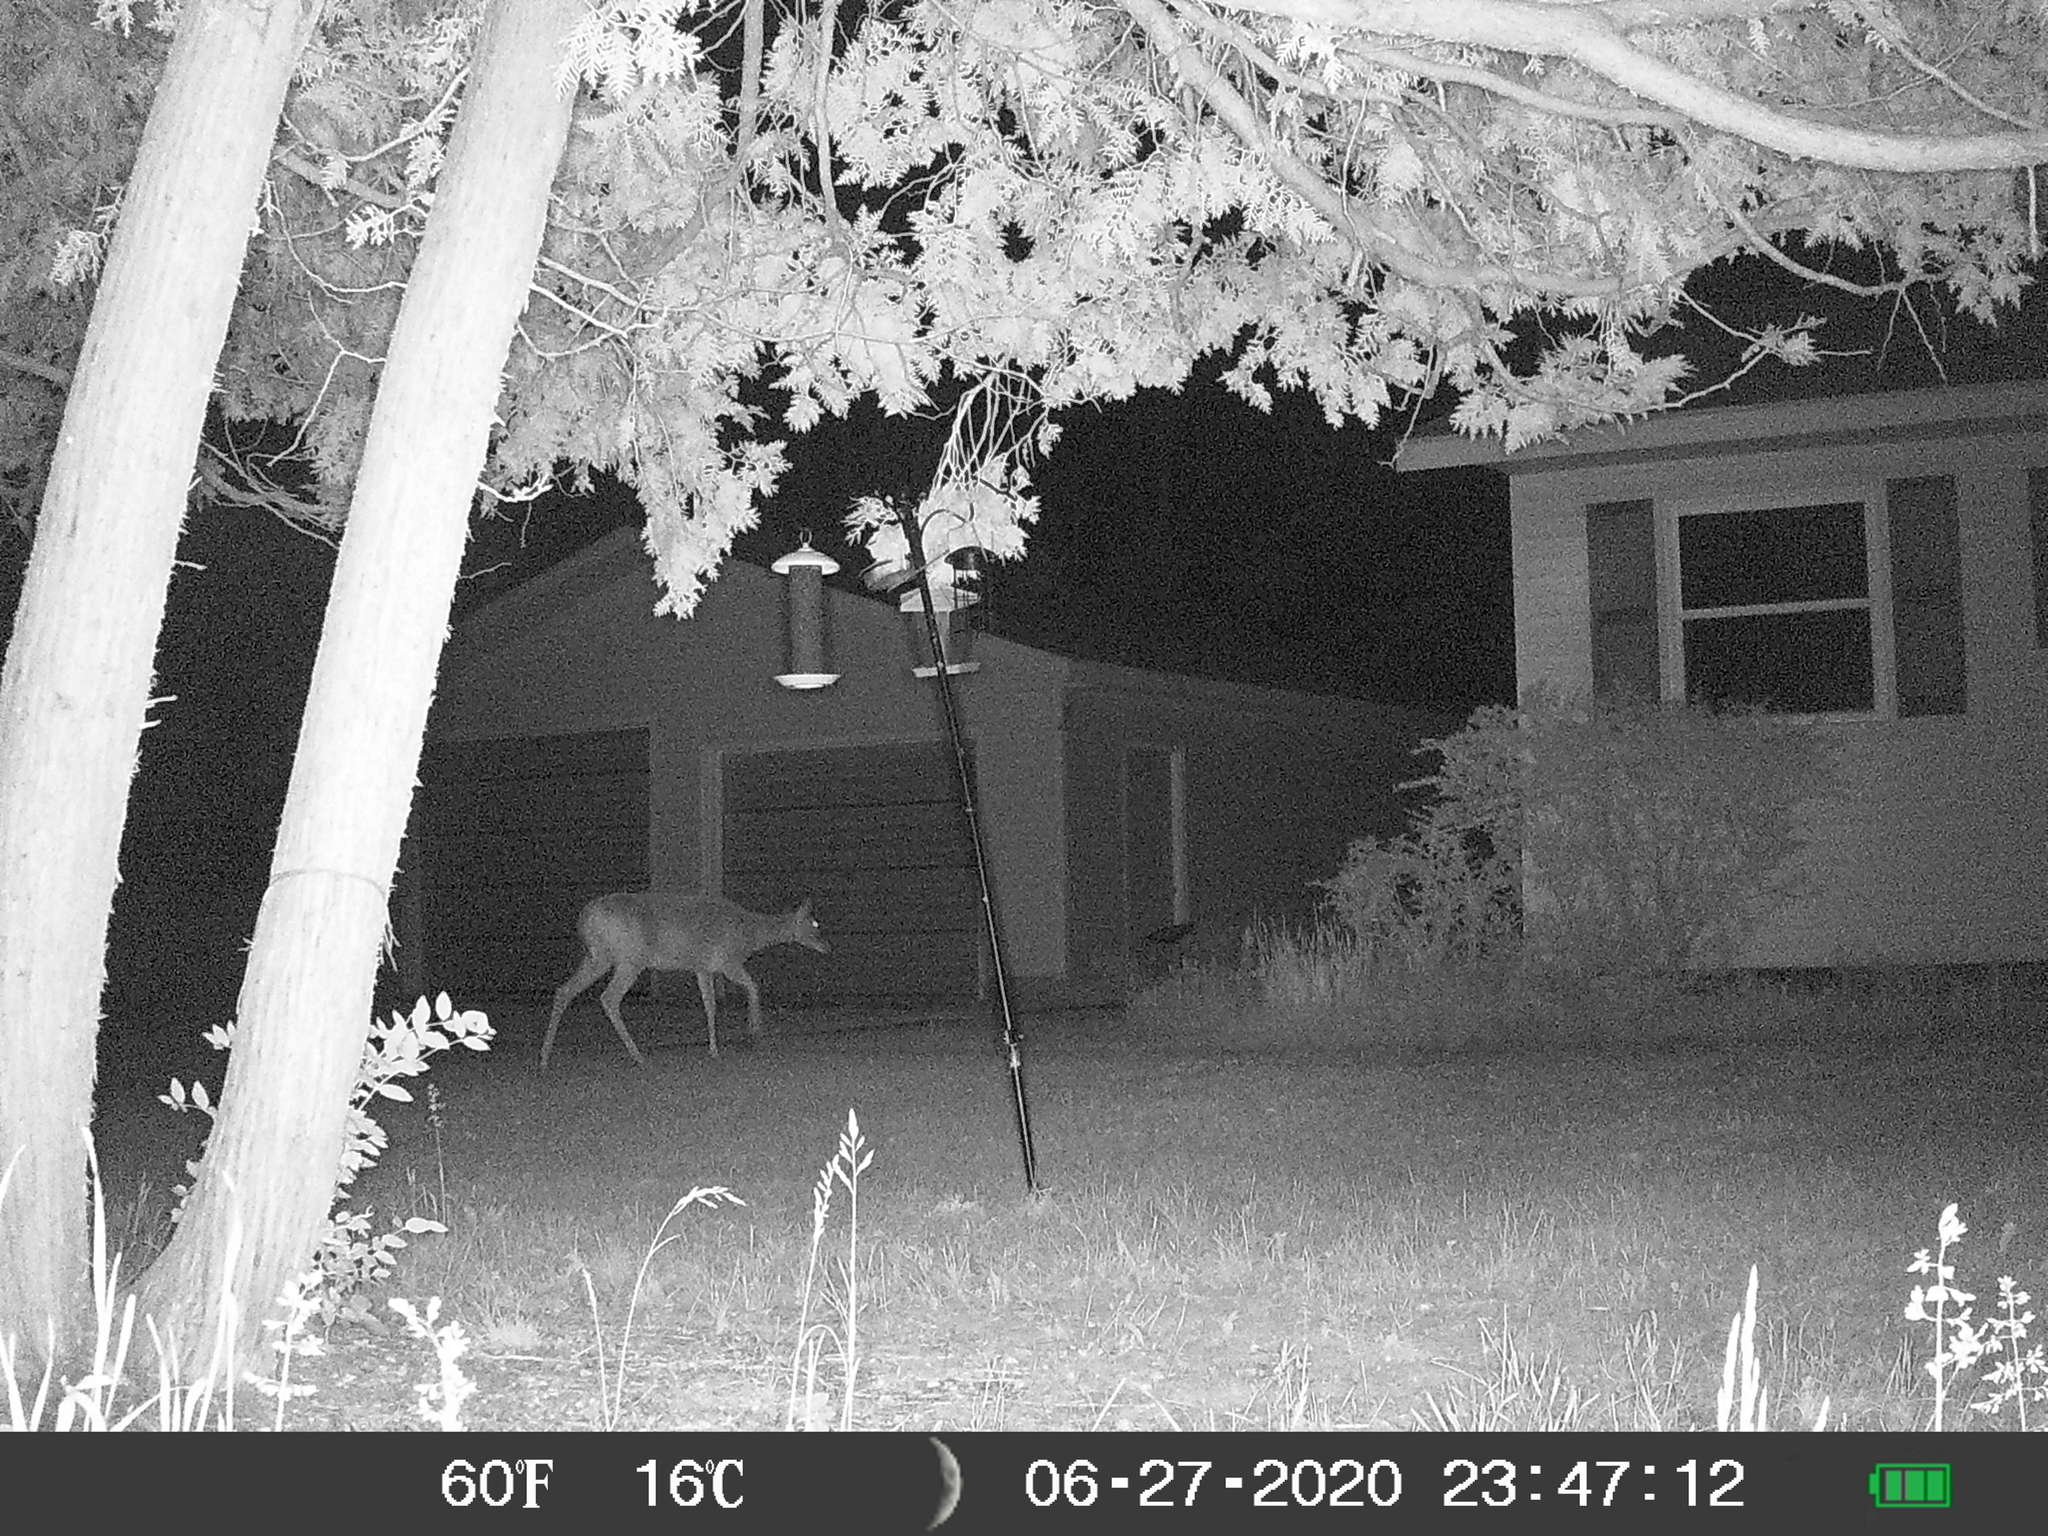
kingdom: Animalia
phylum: Chordata
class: Mammalia
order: Artiodactyla
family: Cervidae
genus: Odocoileus
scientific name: Odocoileus virginianus
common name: White-tailed deer
